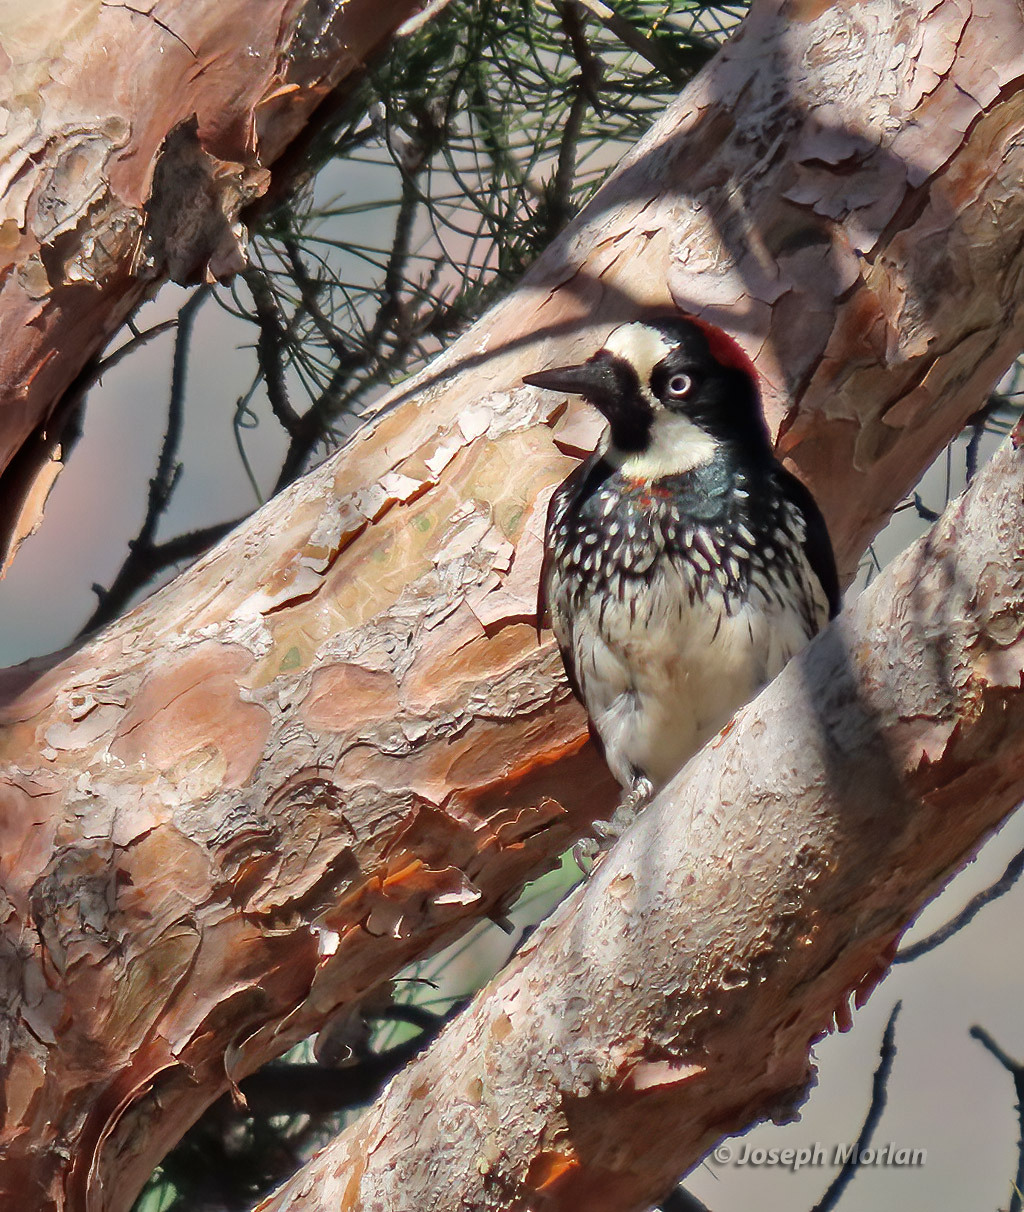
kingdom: Animalia
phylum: Chordata
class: Aves
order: Piciformes
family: Picidae
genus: Melanerpes
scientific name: Melanerpes formicivorus
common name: Acorn woodpecker
